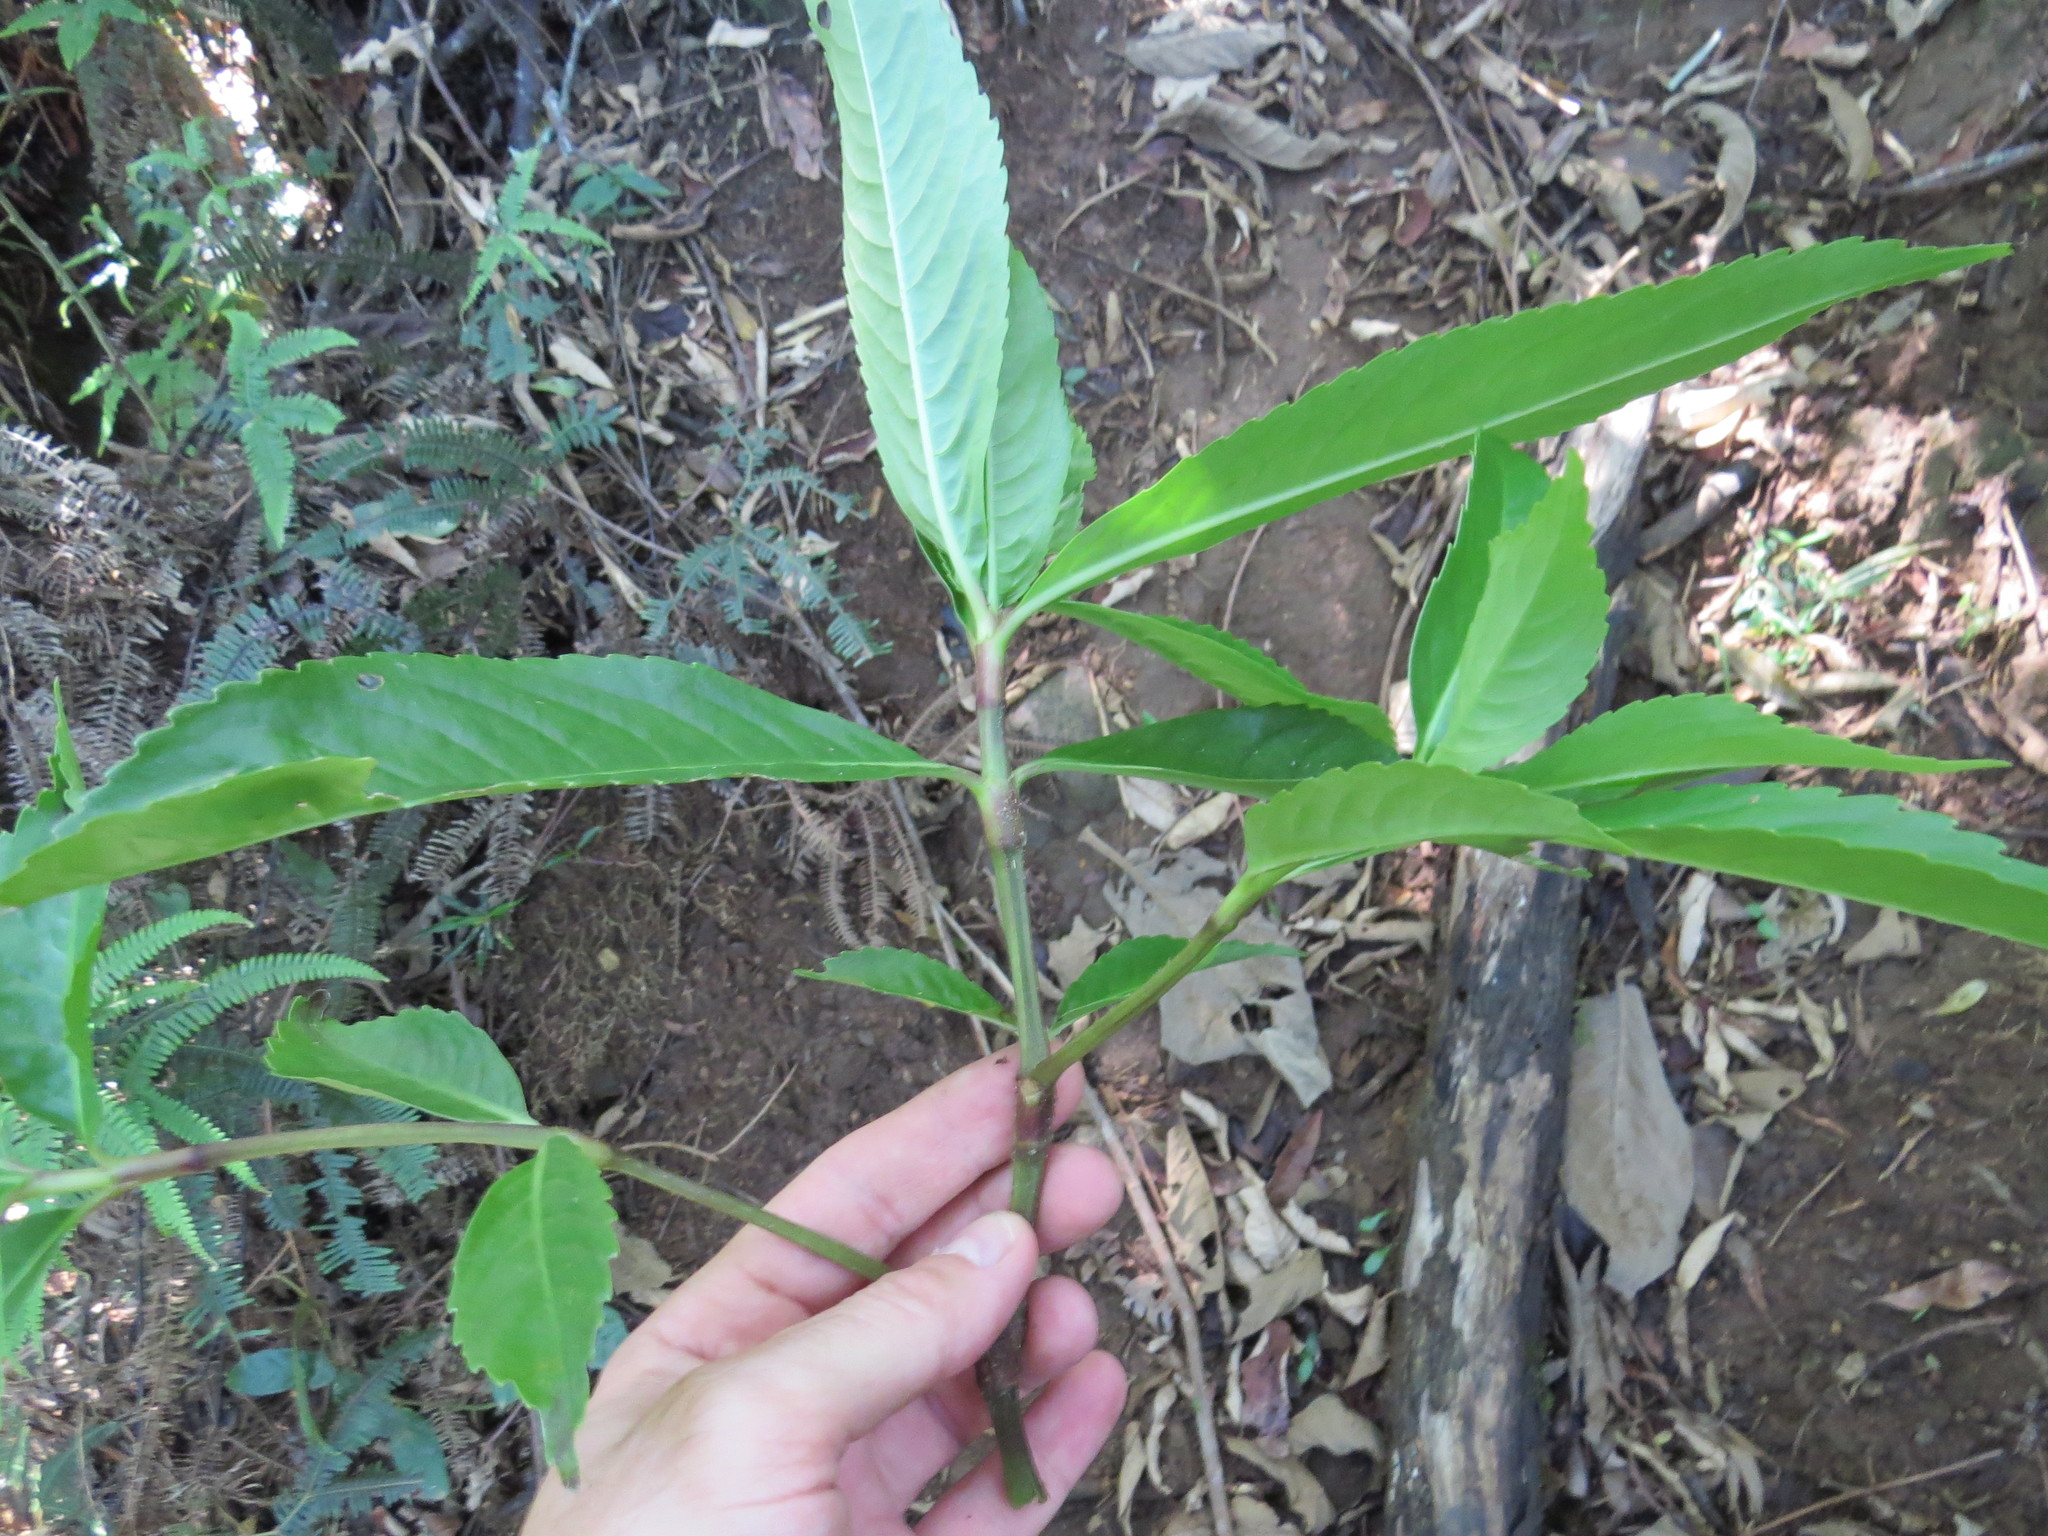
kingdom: Plantae
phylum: Tracheophyta
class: Magnoliopsida
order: Chloranthales
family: Chloranthaceae
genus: Hedyosmum
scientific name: Hedyosmum brasiliense
